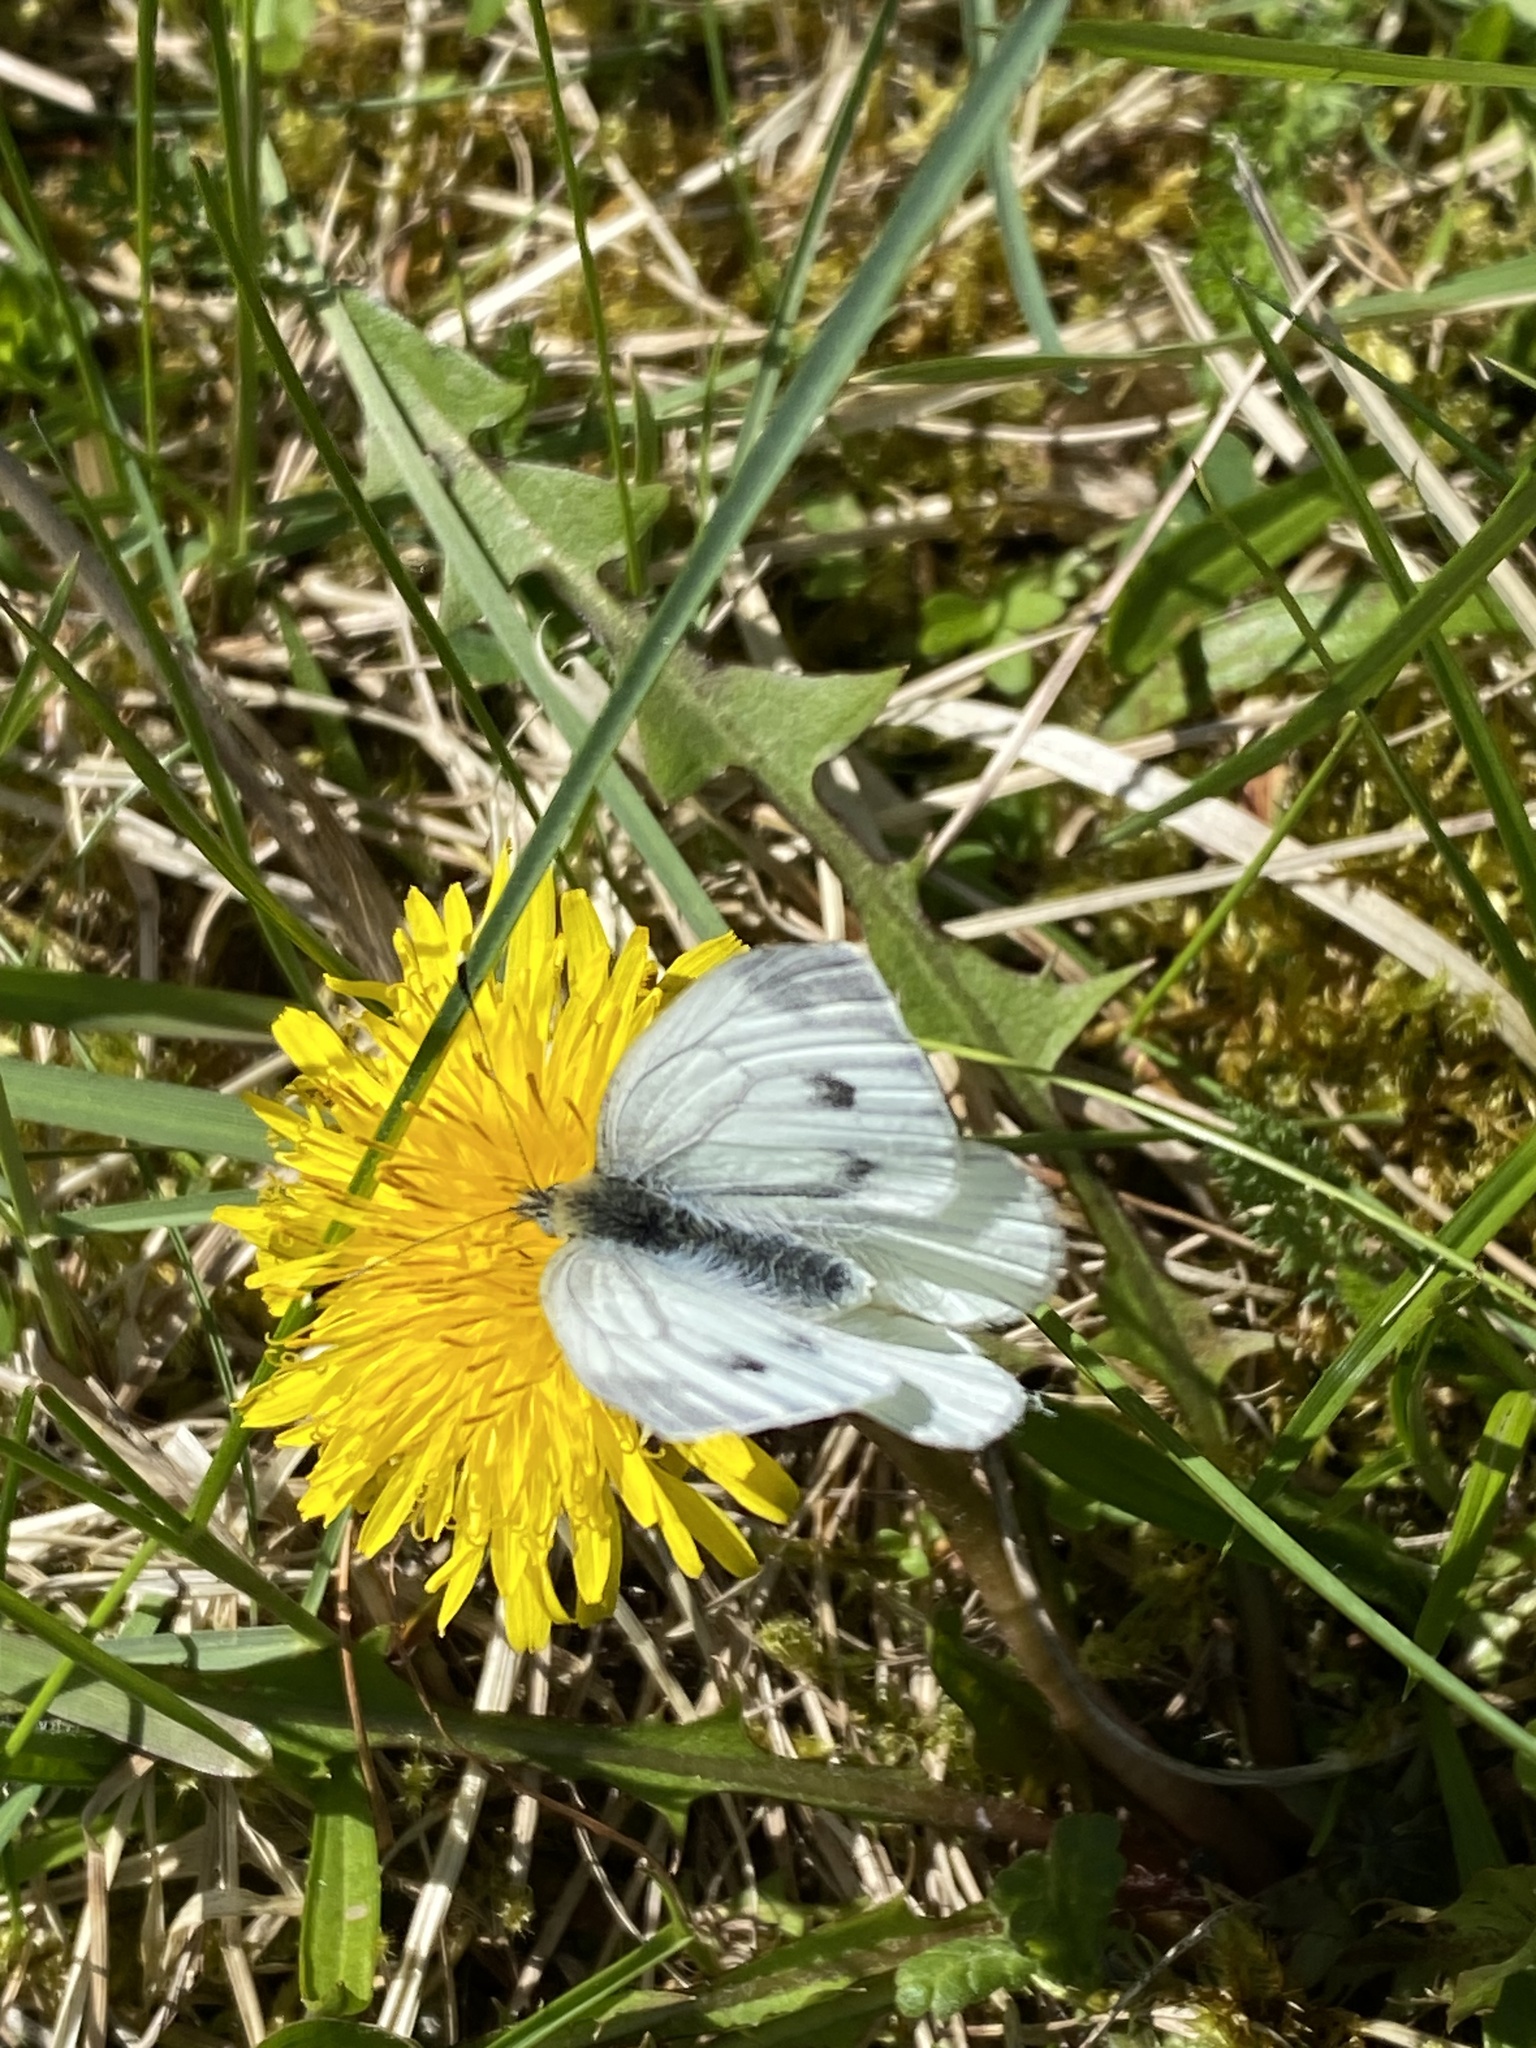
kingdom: Animalia
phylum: Arthropoda
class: Insecta
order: Lepidoptera
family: Pieridae
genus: Pieris
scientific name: Pieris napi
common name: Green-veined white
